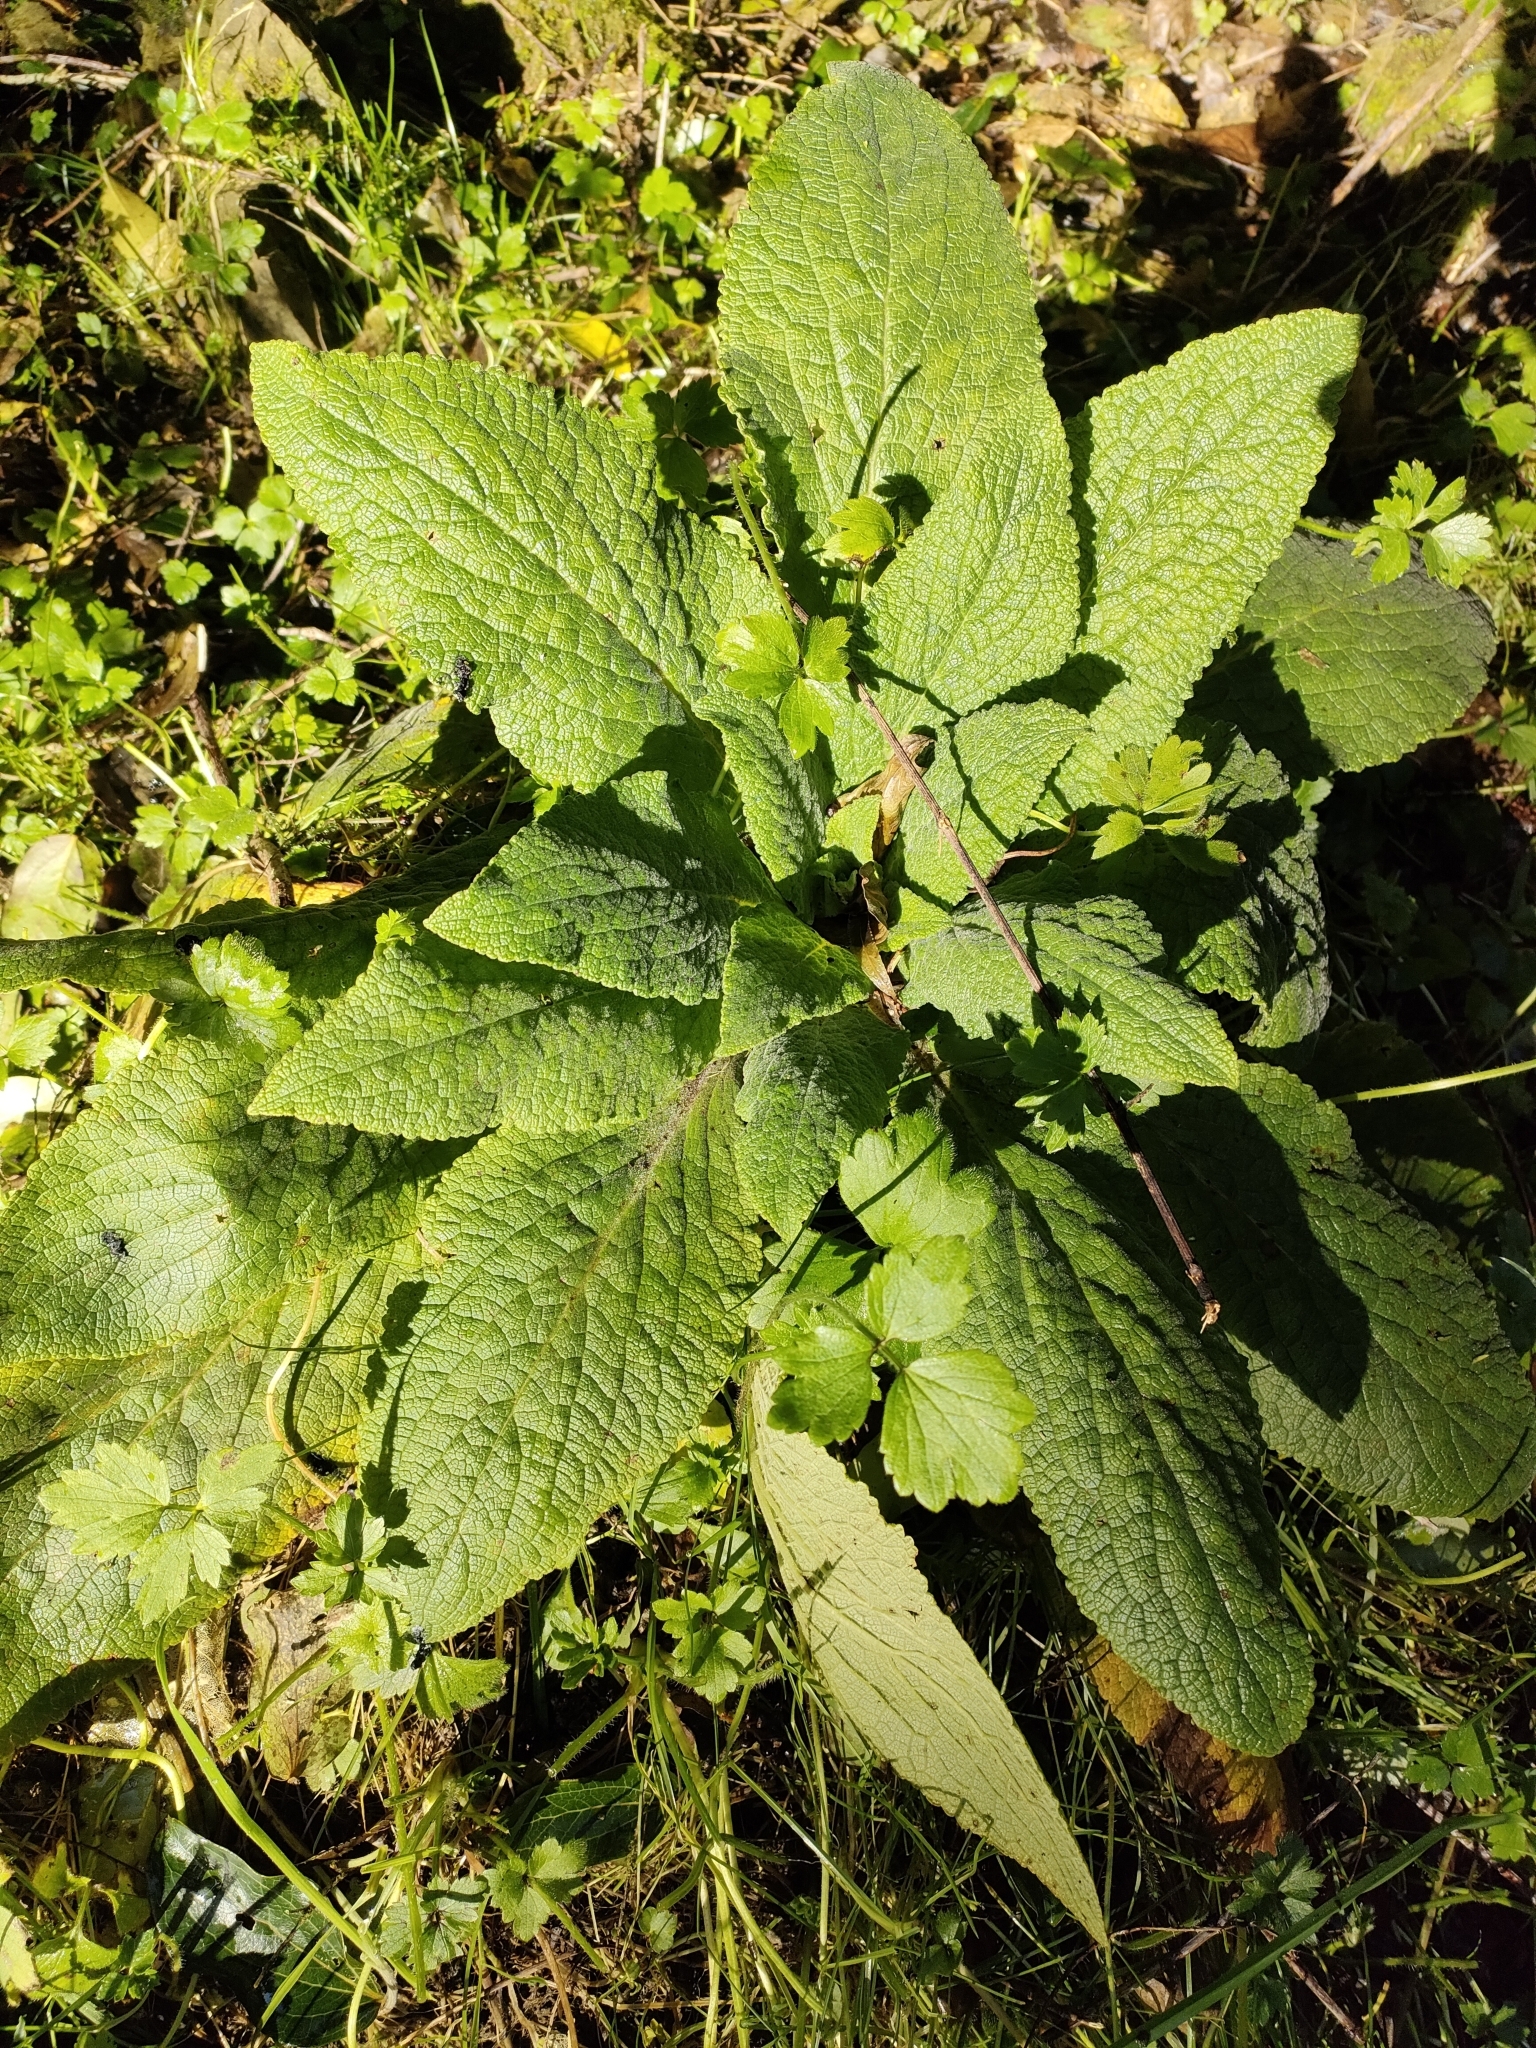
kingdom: Plantae
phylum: Tracheophyta
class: Magnoliopsida
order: Lamiales
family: Plantaginaceae
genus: Digitalis
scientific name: Digitalis purpurea
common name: Foxglove
